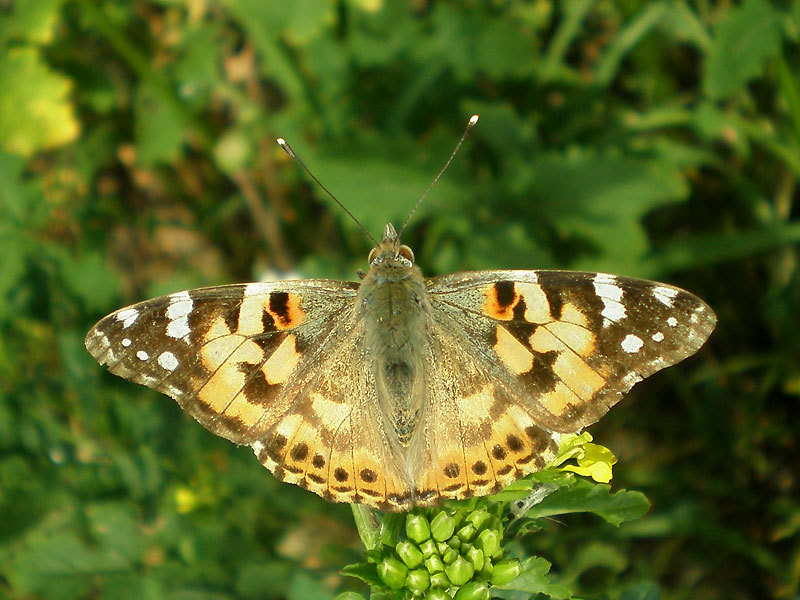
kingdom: Animalia
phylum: Arthropoda
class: Insecta
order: Lepidoptera
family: Nymphalidae
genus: Vanessa
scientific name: Vanessa cardui
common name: Painted lady
